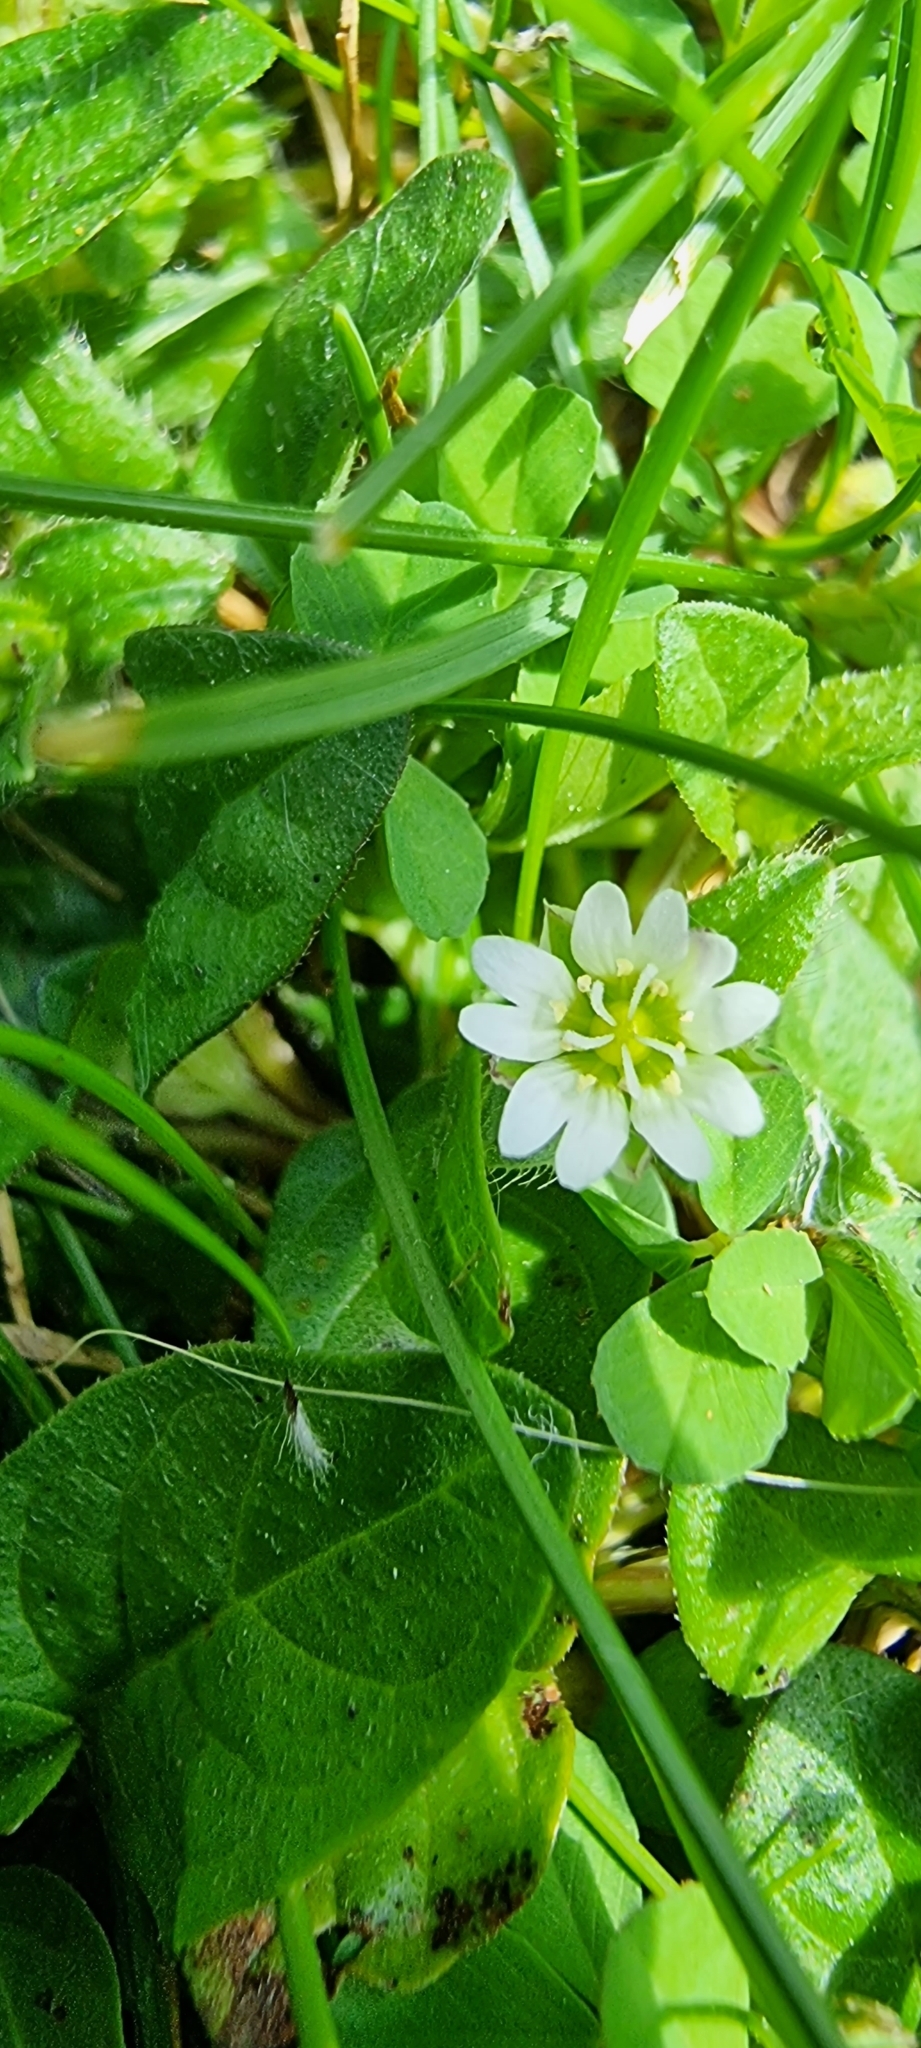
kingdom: Plantae
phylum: Tracheophyta
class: Magnoliopsida
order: Caryophyllales
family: Caryophyllaceae
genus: Cerastium
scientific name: Cerastium fontanum
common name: Common mouse-ear
